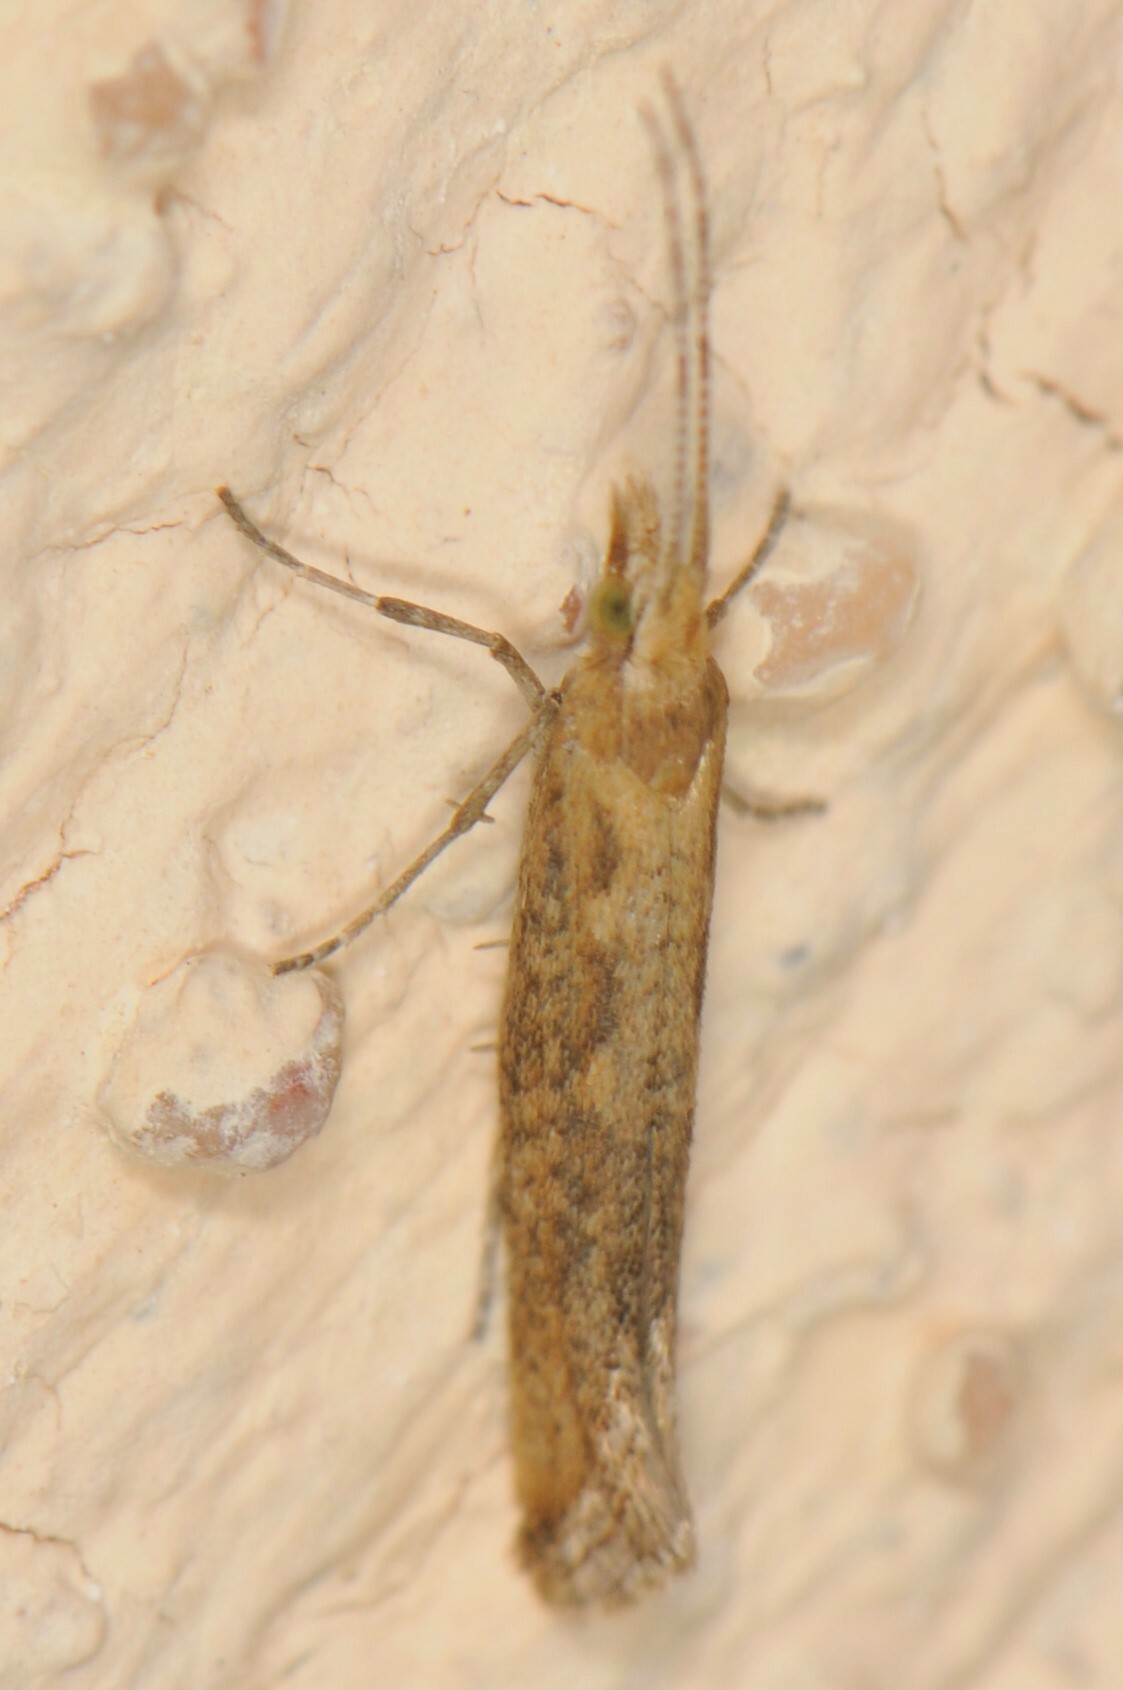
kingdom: Animalia
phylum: Arthropoda
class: Insecta
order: Lepidoptera
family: Plutellidae
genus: Plutella
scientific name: Plutella xylostella
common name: Diamond-back moth
